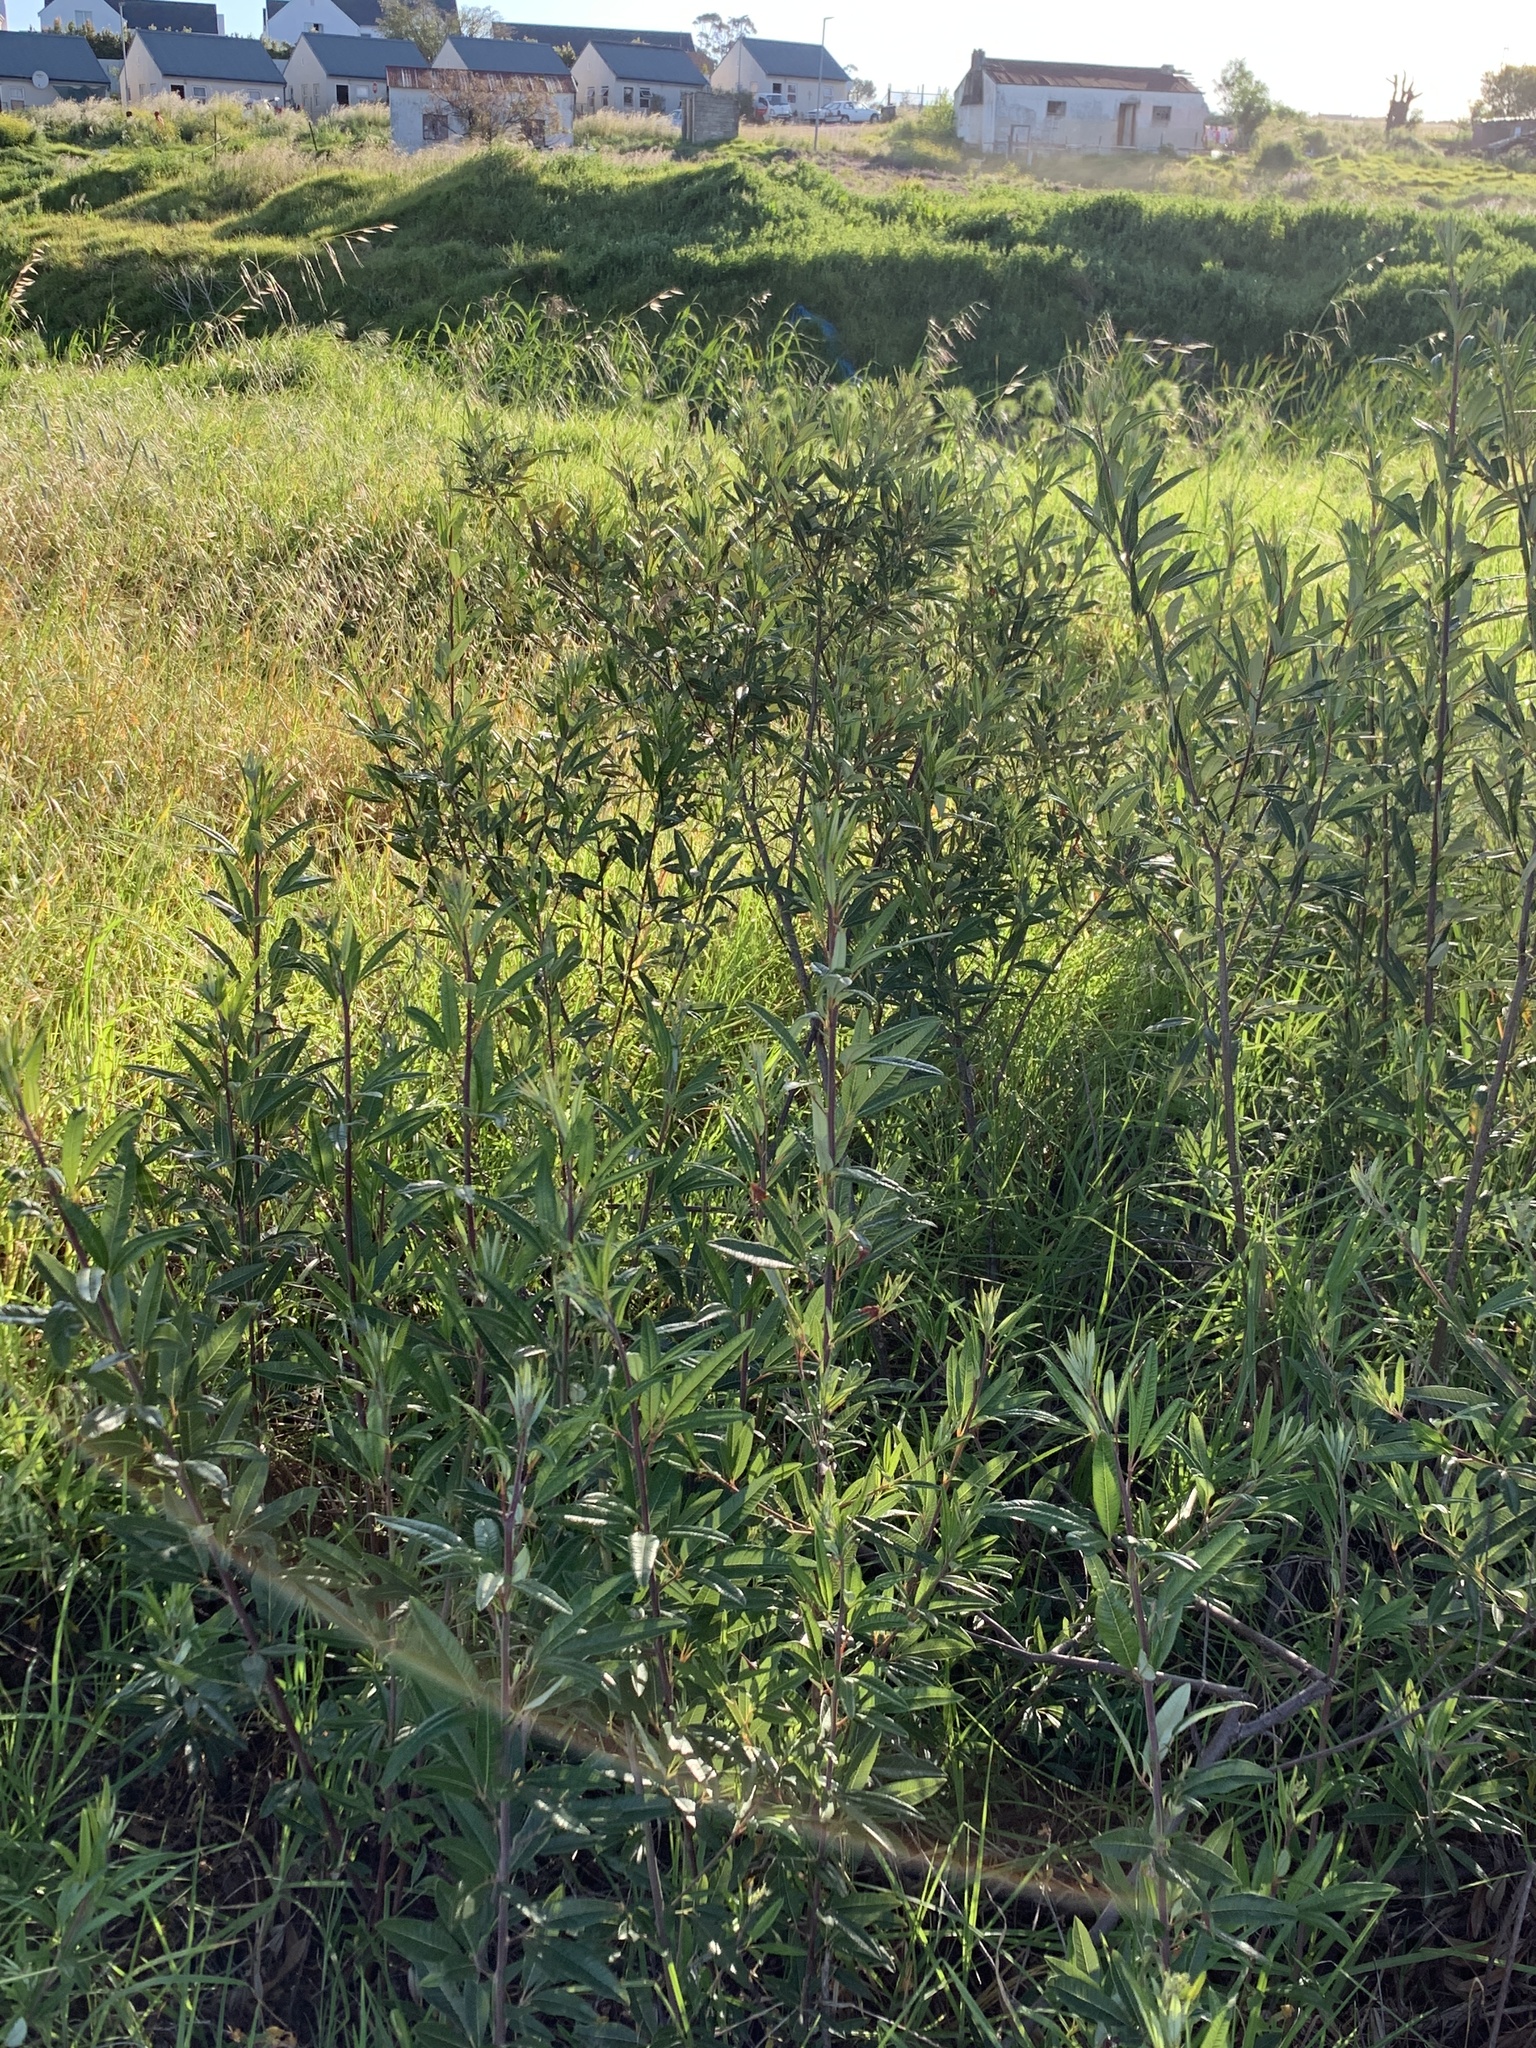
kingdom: Plantae
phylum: Tracheophyta
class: Magnoliopsida
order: Sapindales
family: Anacardiaceae
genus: Searsia
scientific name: Searsia angustifolia
